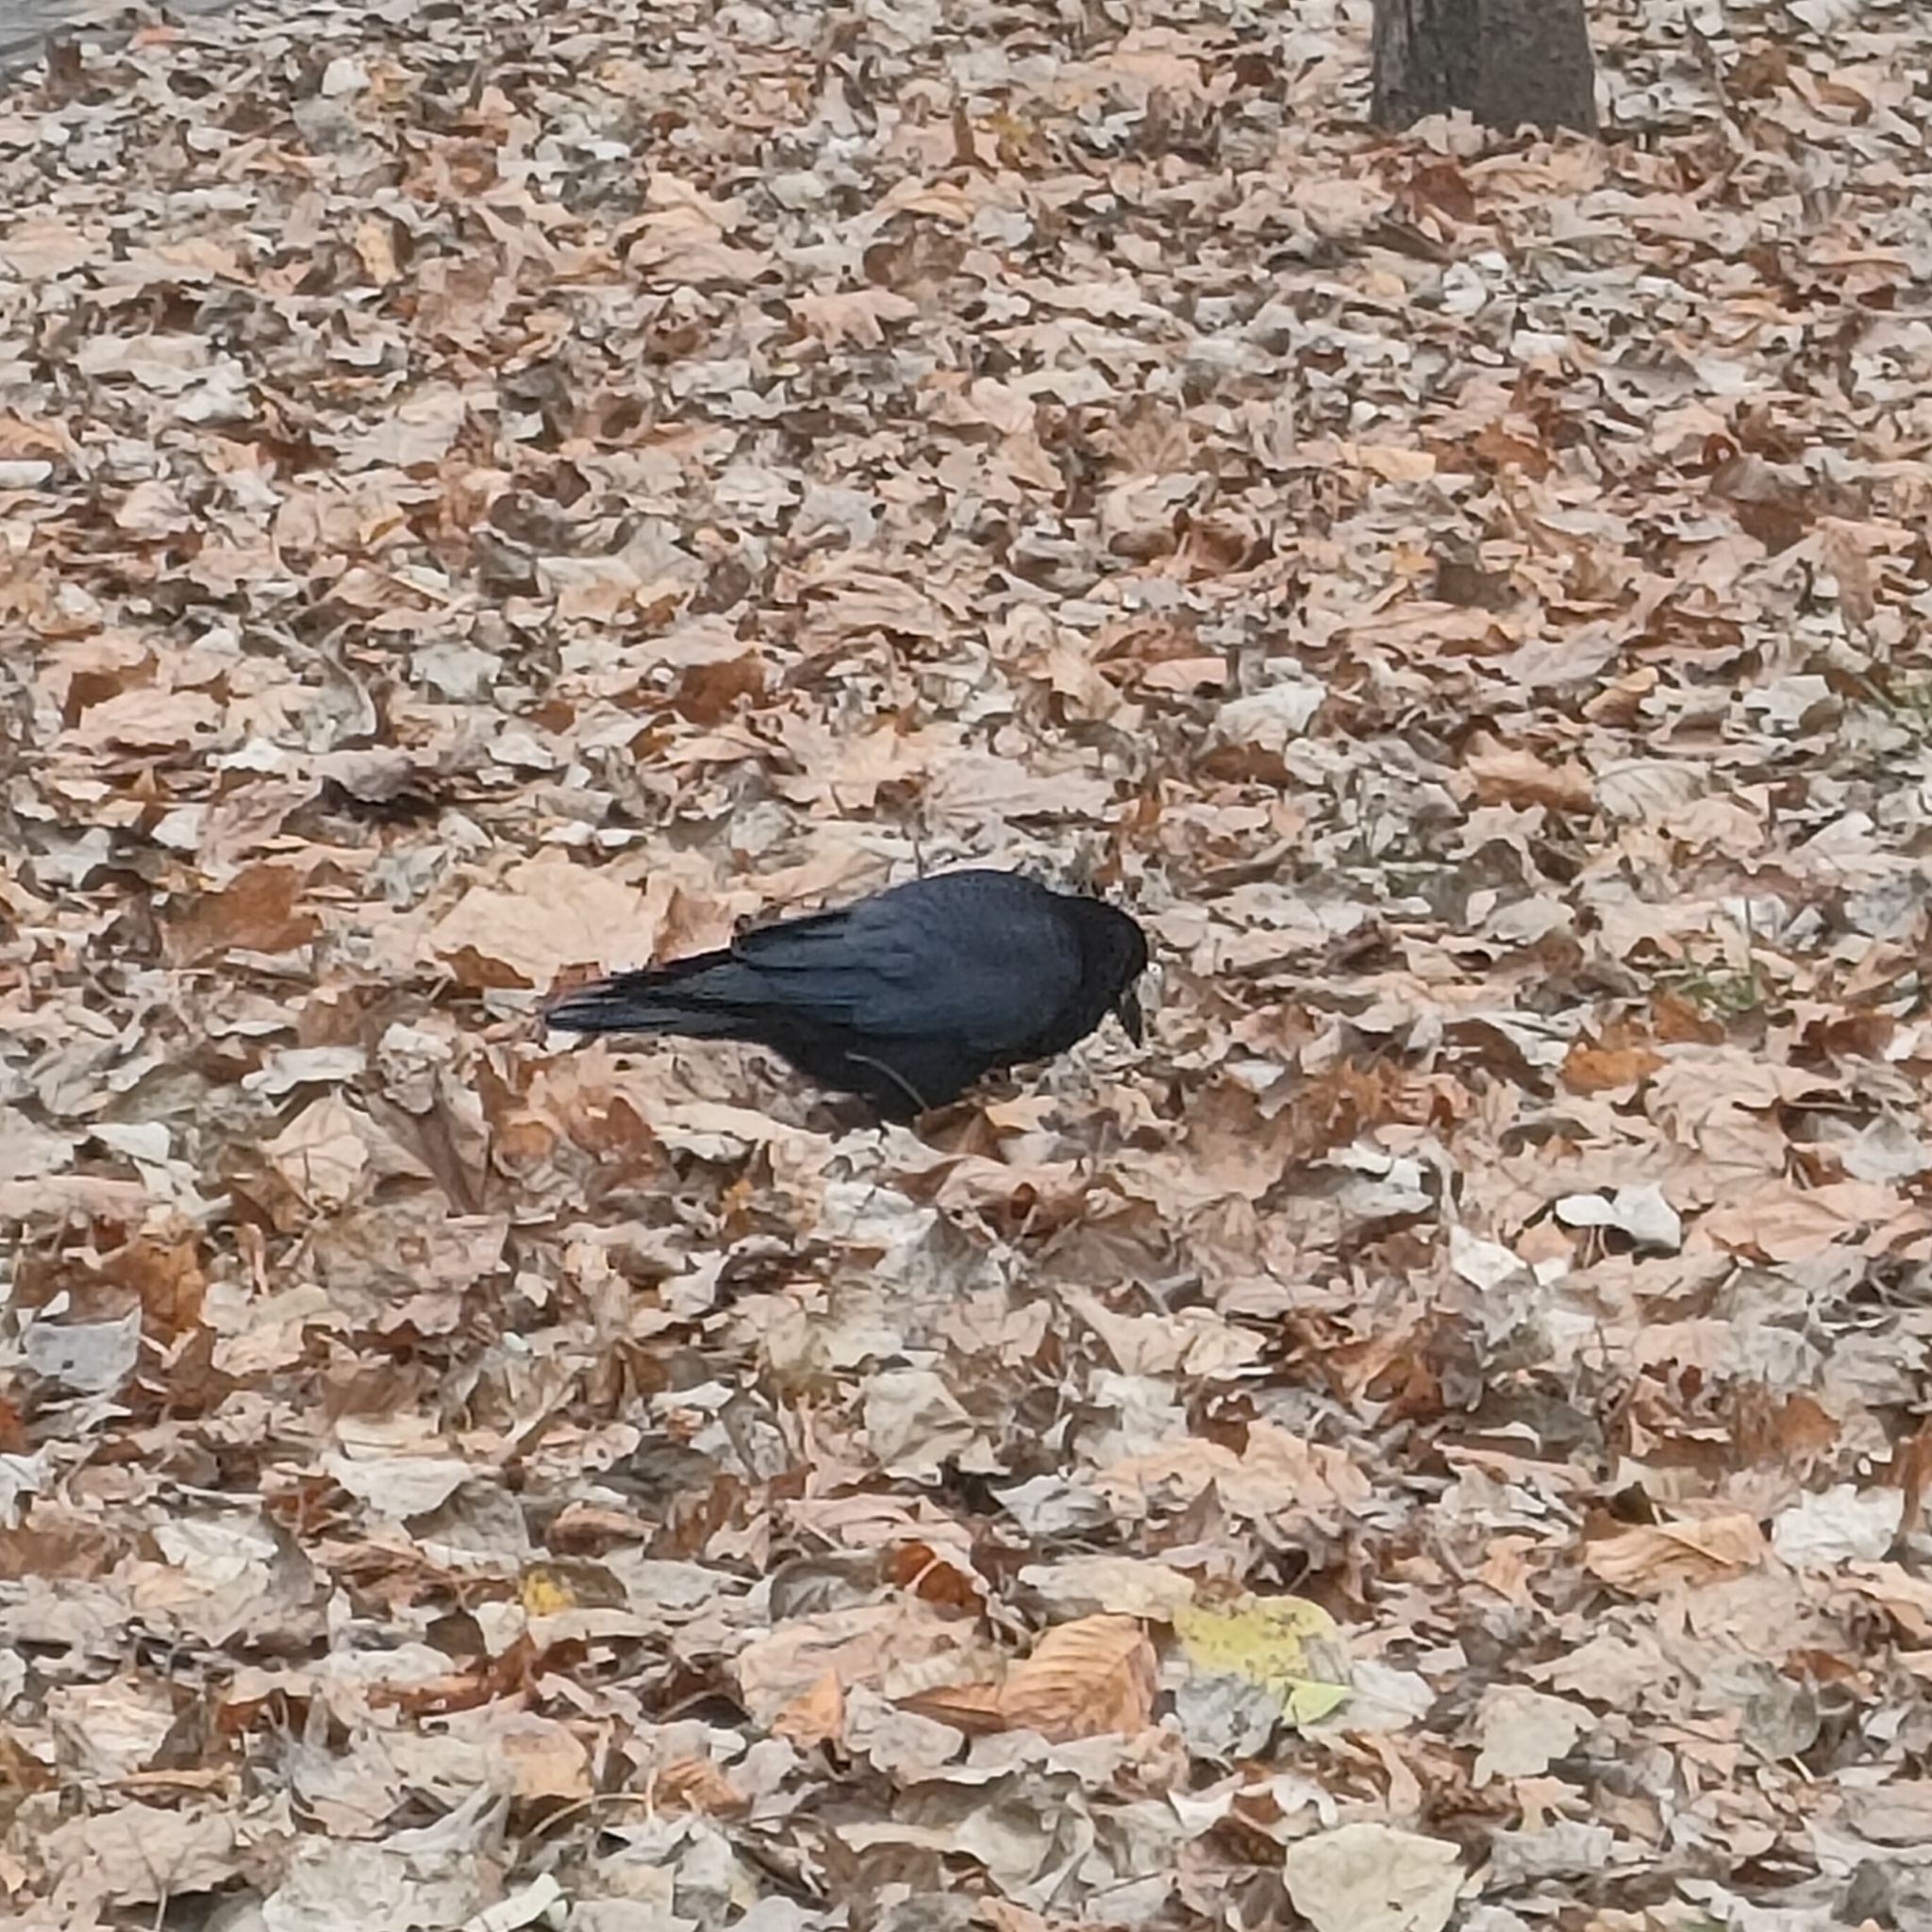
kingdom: Animalia
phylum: Chordata
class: Aves
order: Passeriformes
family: Corvidae
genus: Corvus
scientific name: Corvus frugilegus
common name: Rook
